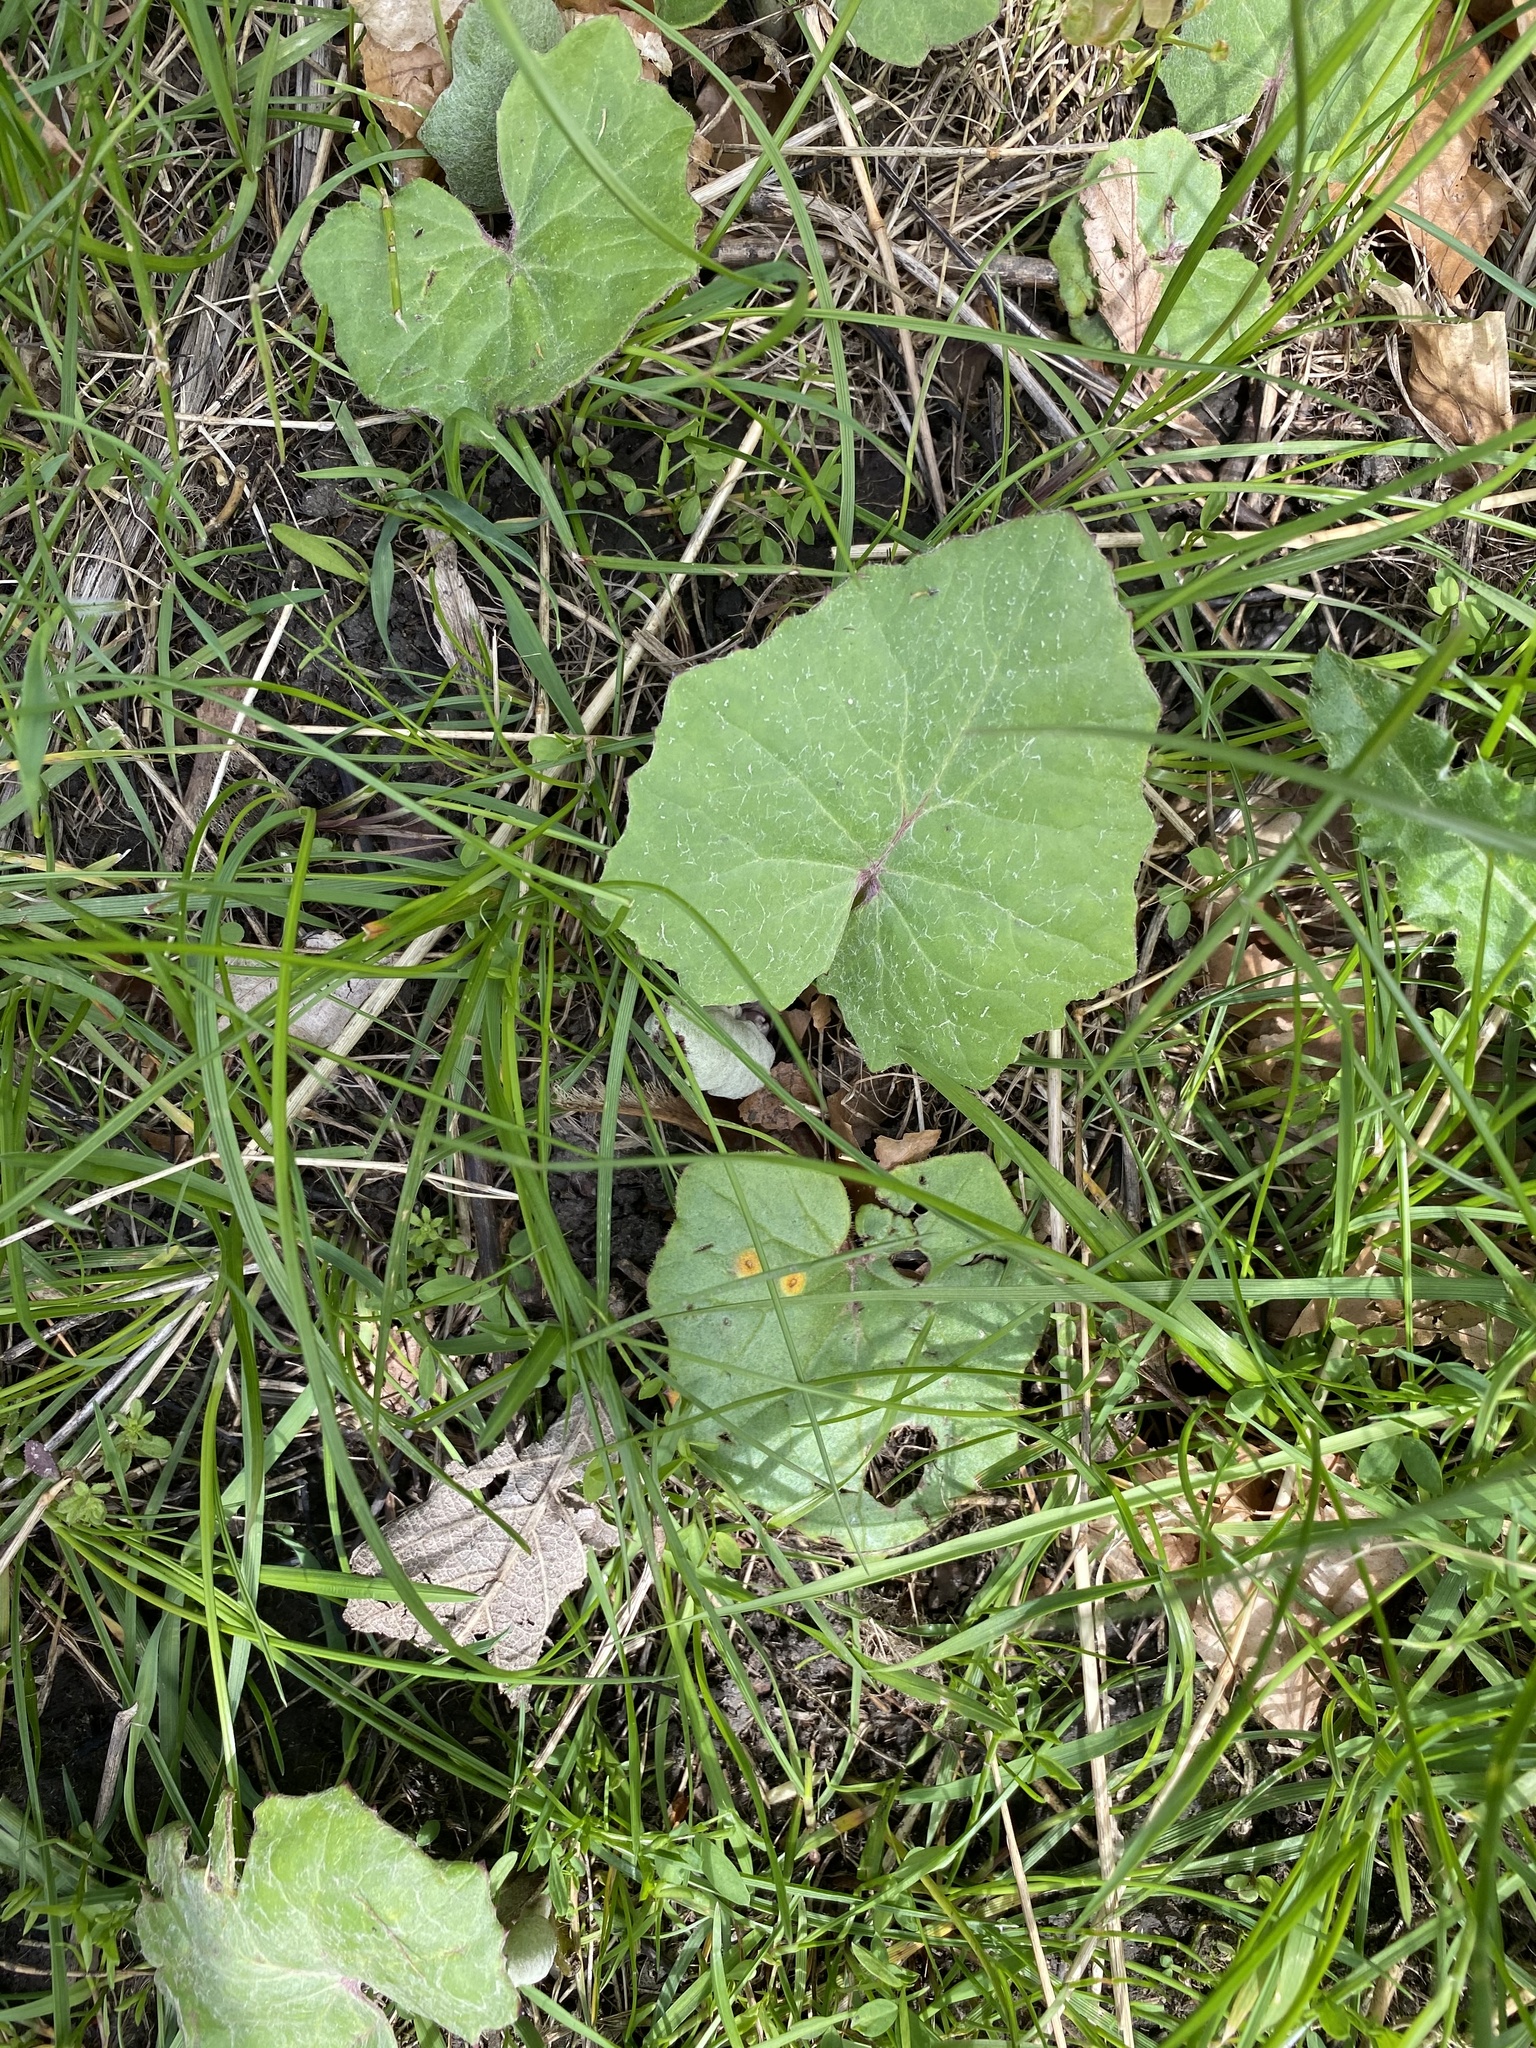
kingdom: Plantae
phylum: Tracheophyta
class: Magnoliopsida
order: Asterales
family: Asteraceae
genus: Tussilago
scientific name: Tussilago farfara
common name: Coltsfoot
